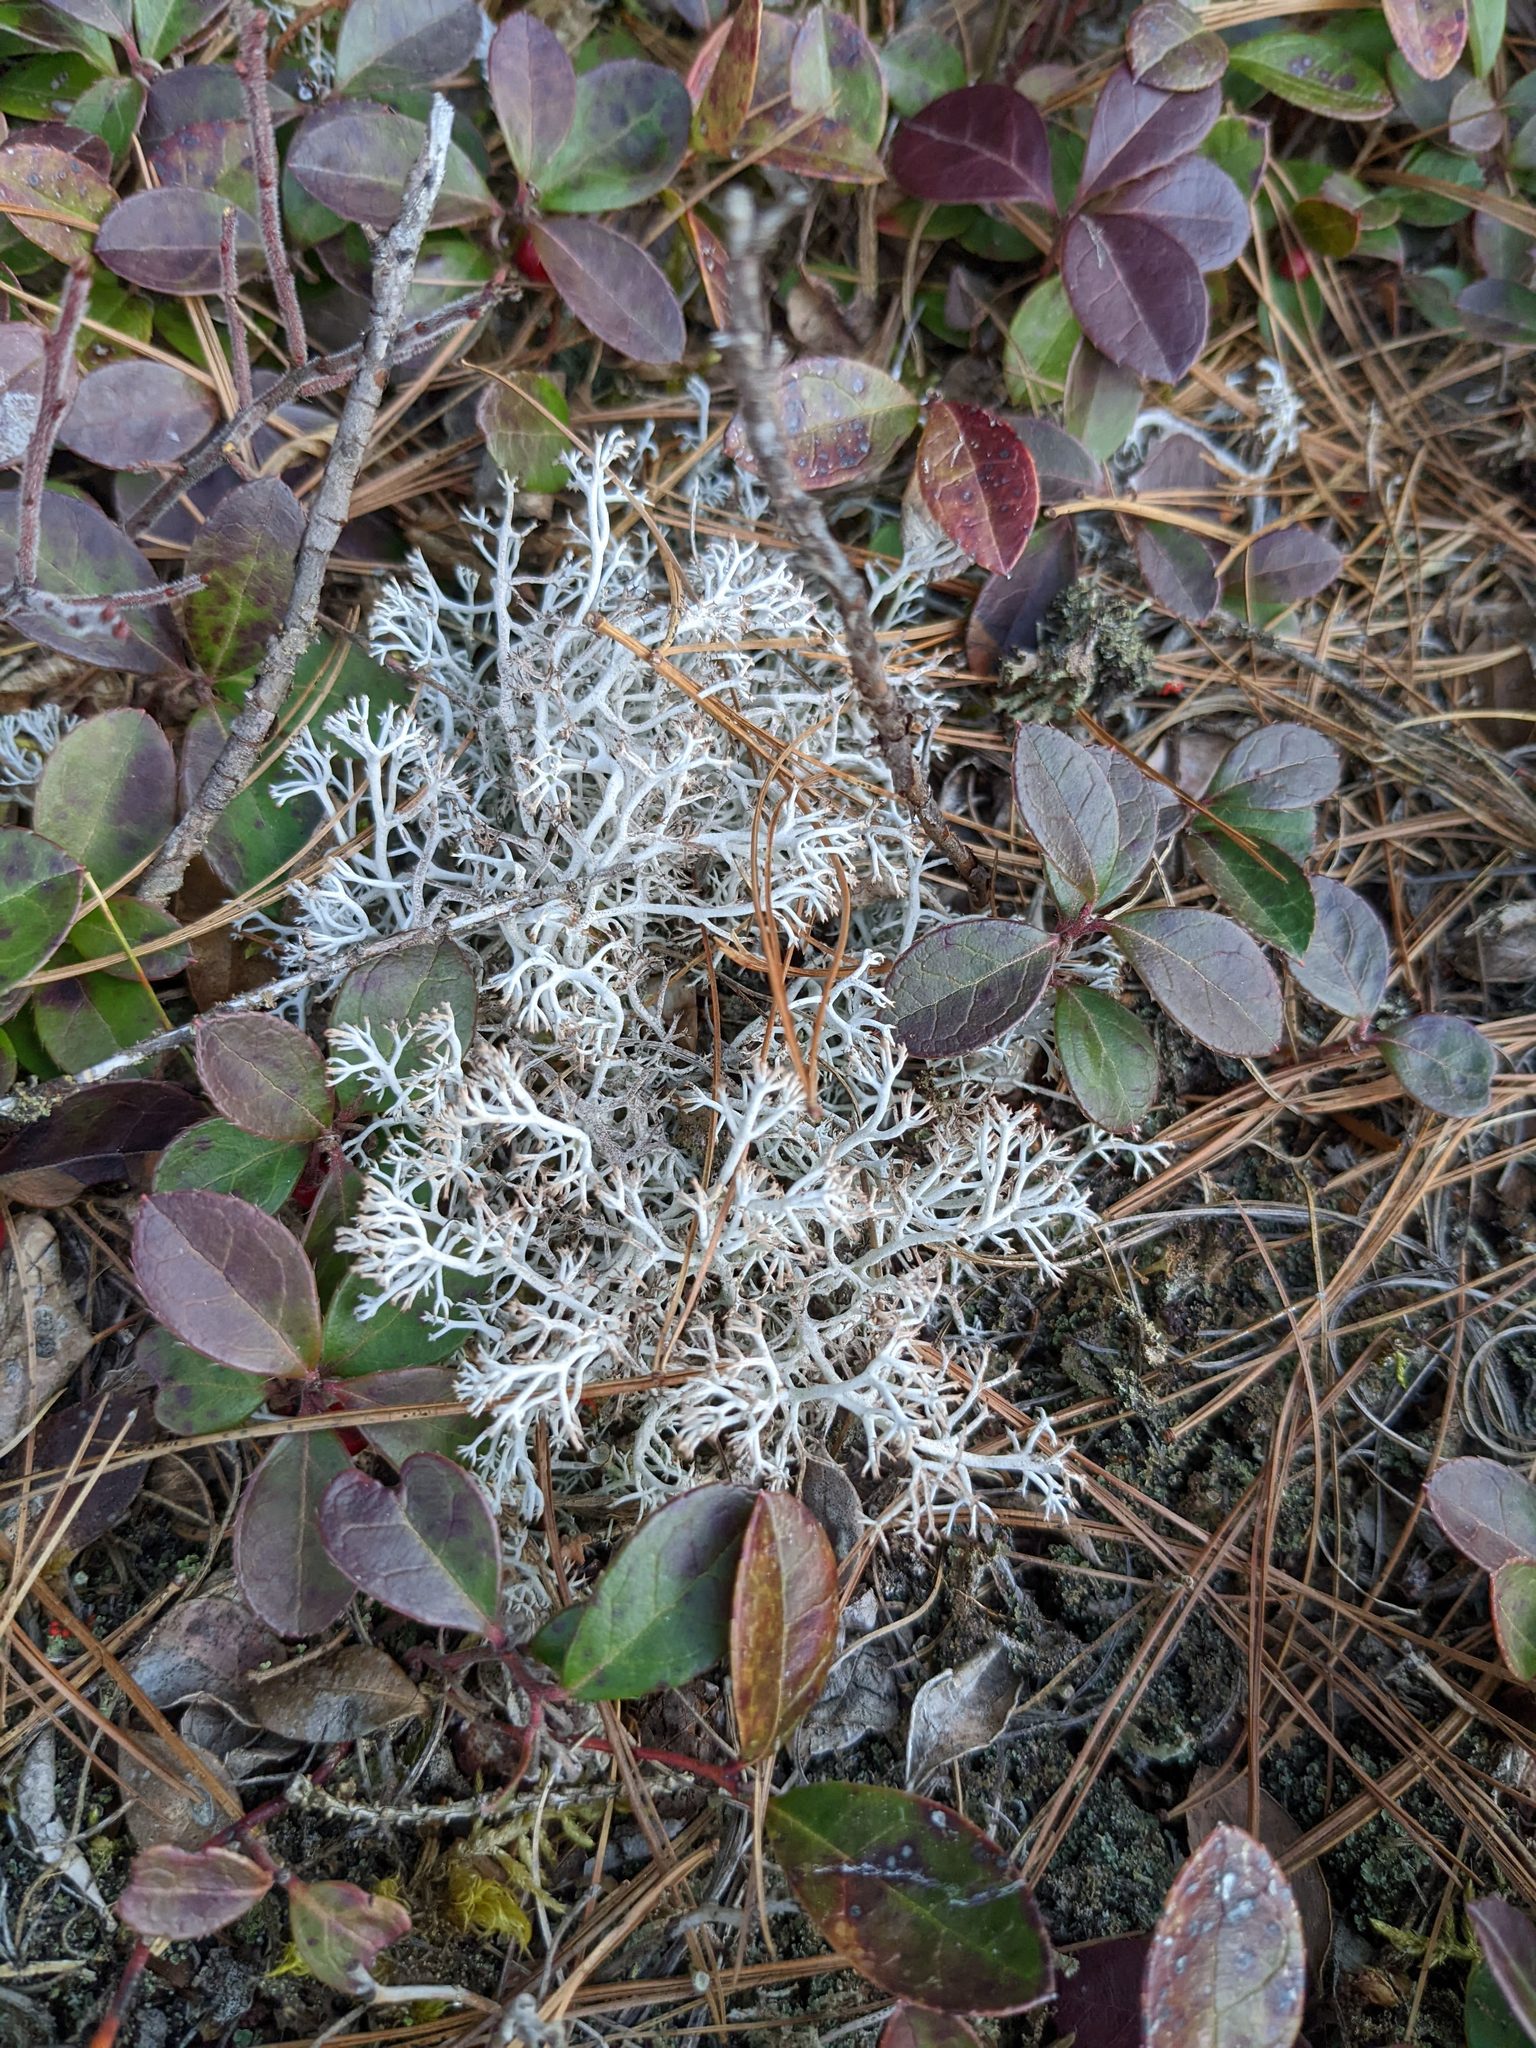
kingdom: Plantae
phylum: Tracheophyta
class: Magnoliopsida
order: Ericales
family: Ericaceae
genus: Gaultheria
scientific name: Gaultheria procumbens
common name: Checkerberry
